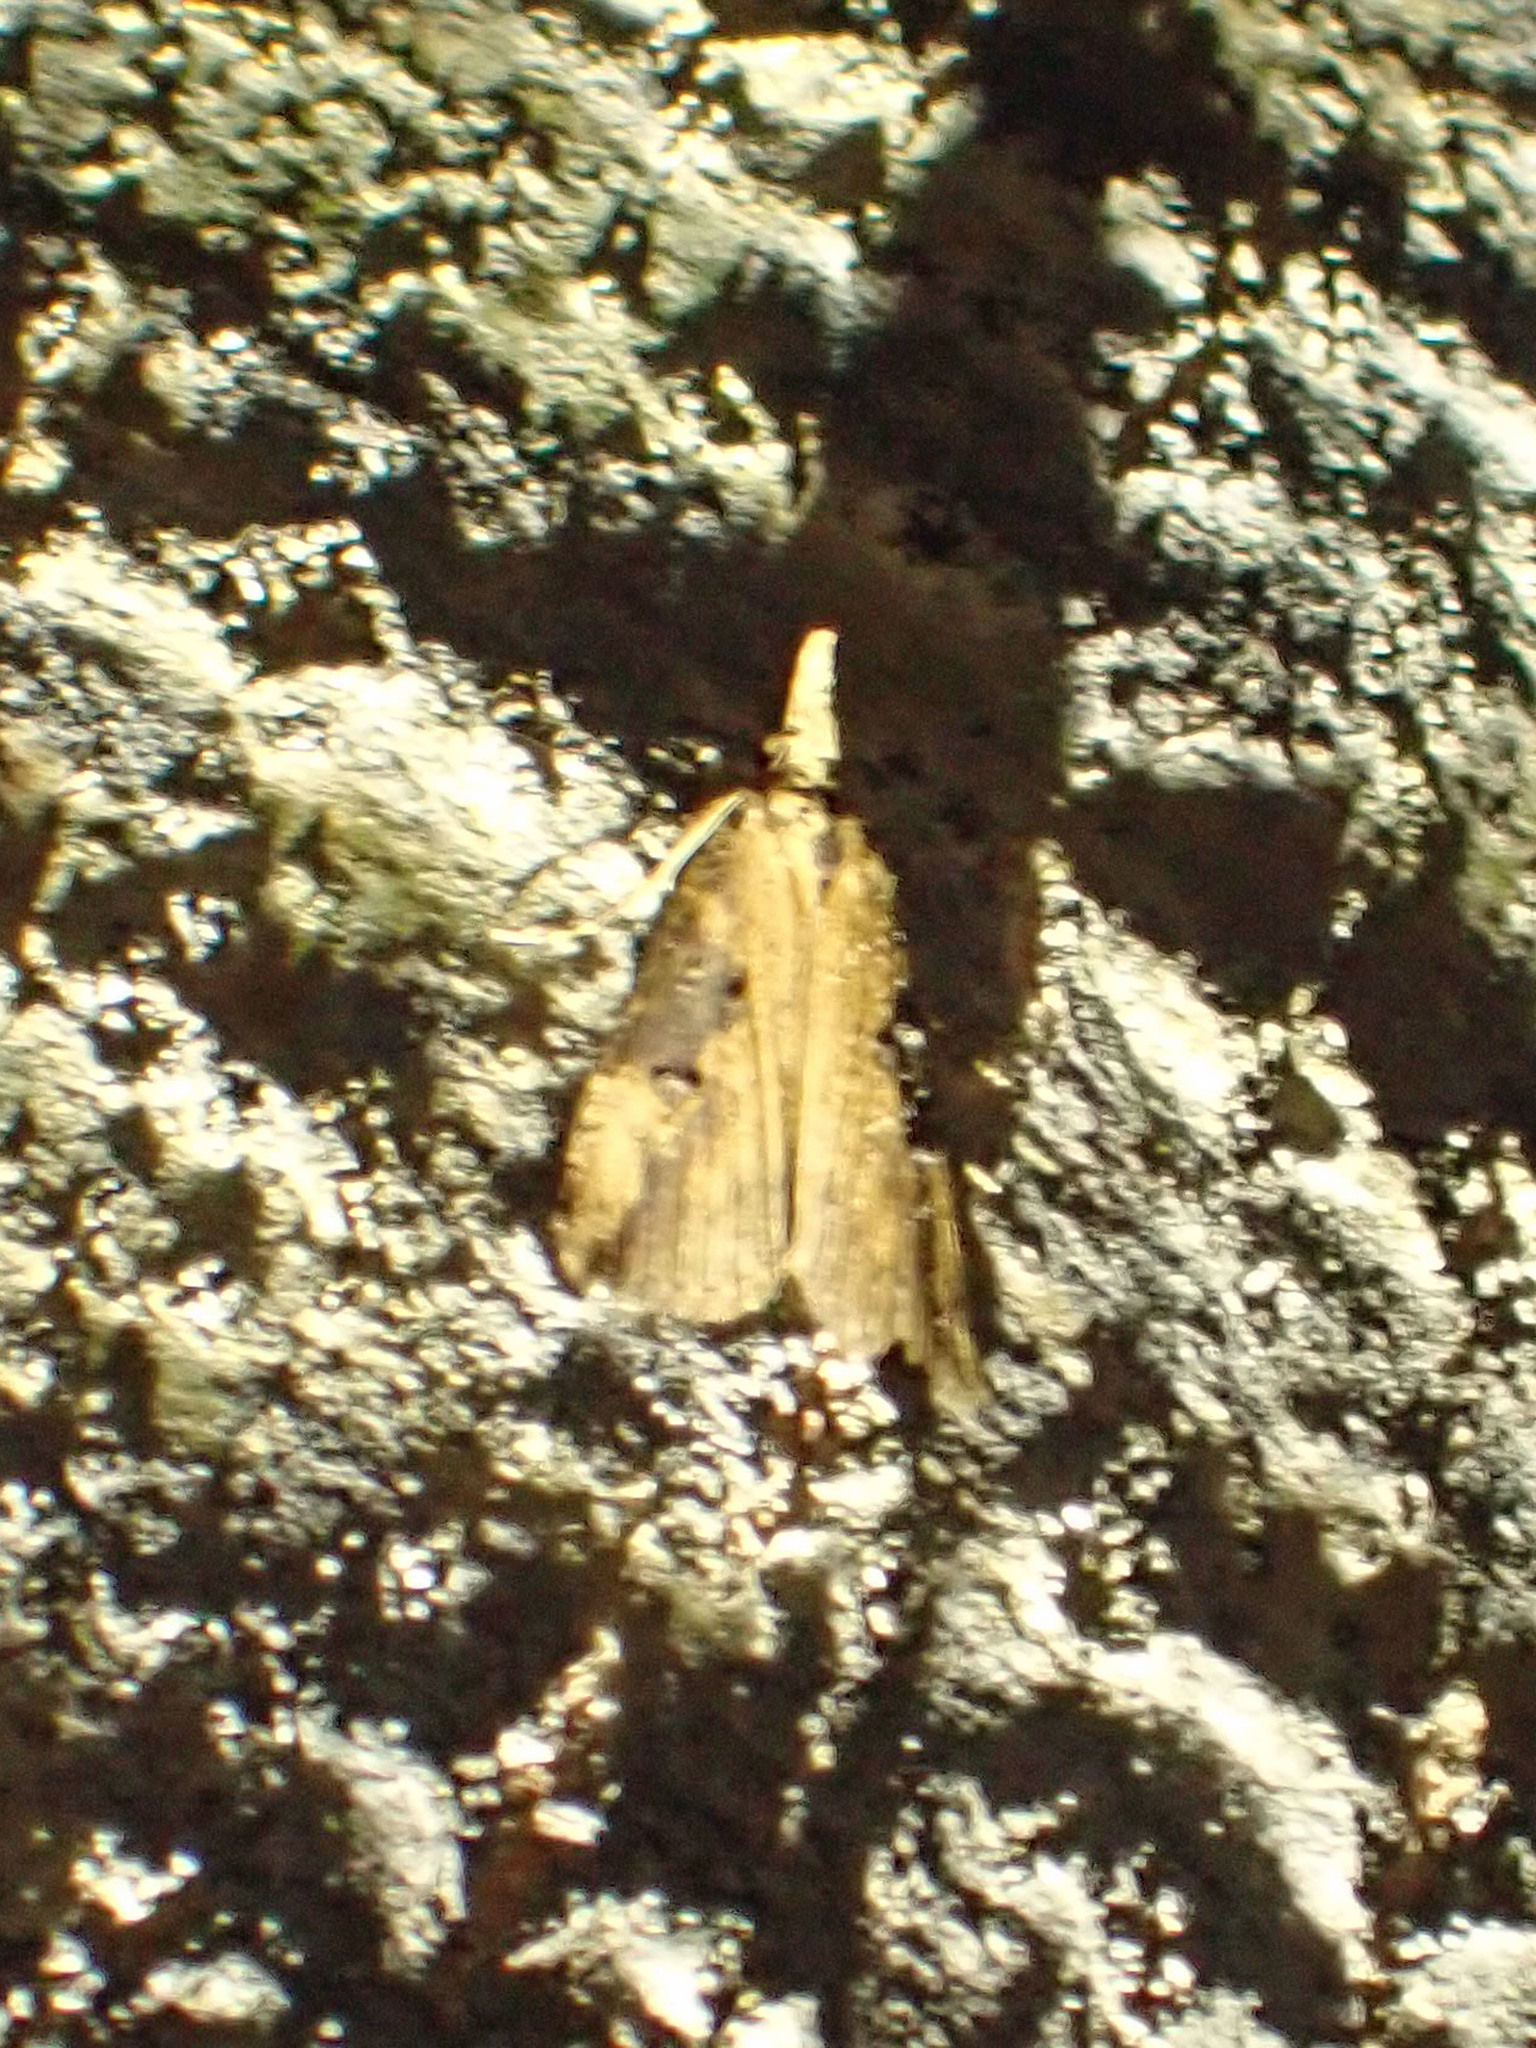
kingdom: Animalia
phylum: Arthropoda
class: Insecta
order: Lepidoptera
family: Erebidae
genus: Hypena
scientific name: Hypena humuli
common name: Hop vine snout
